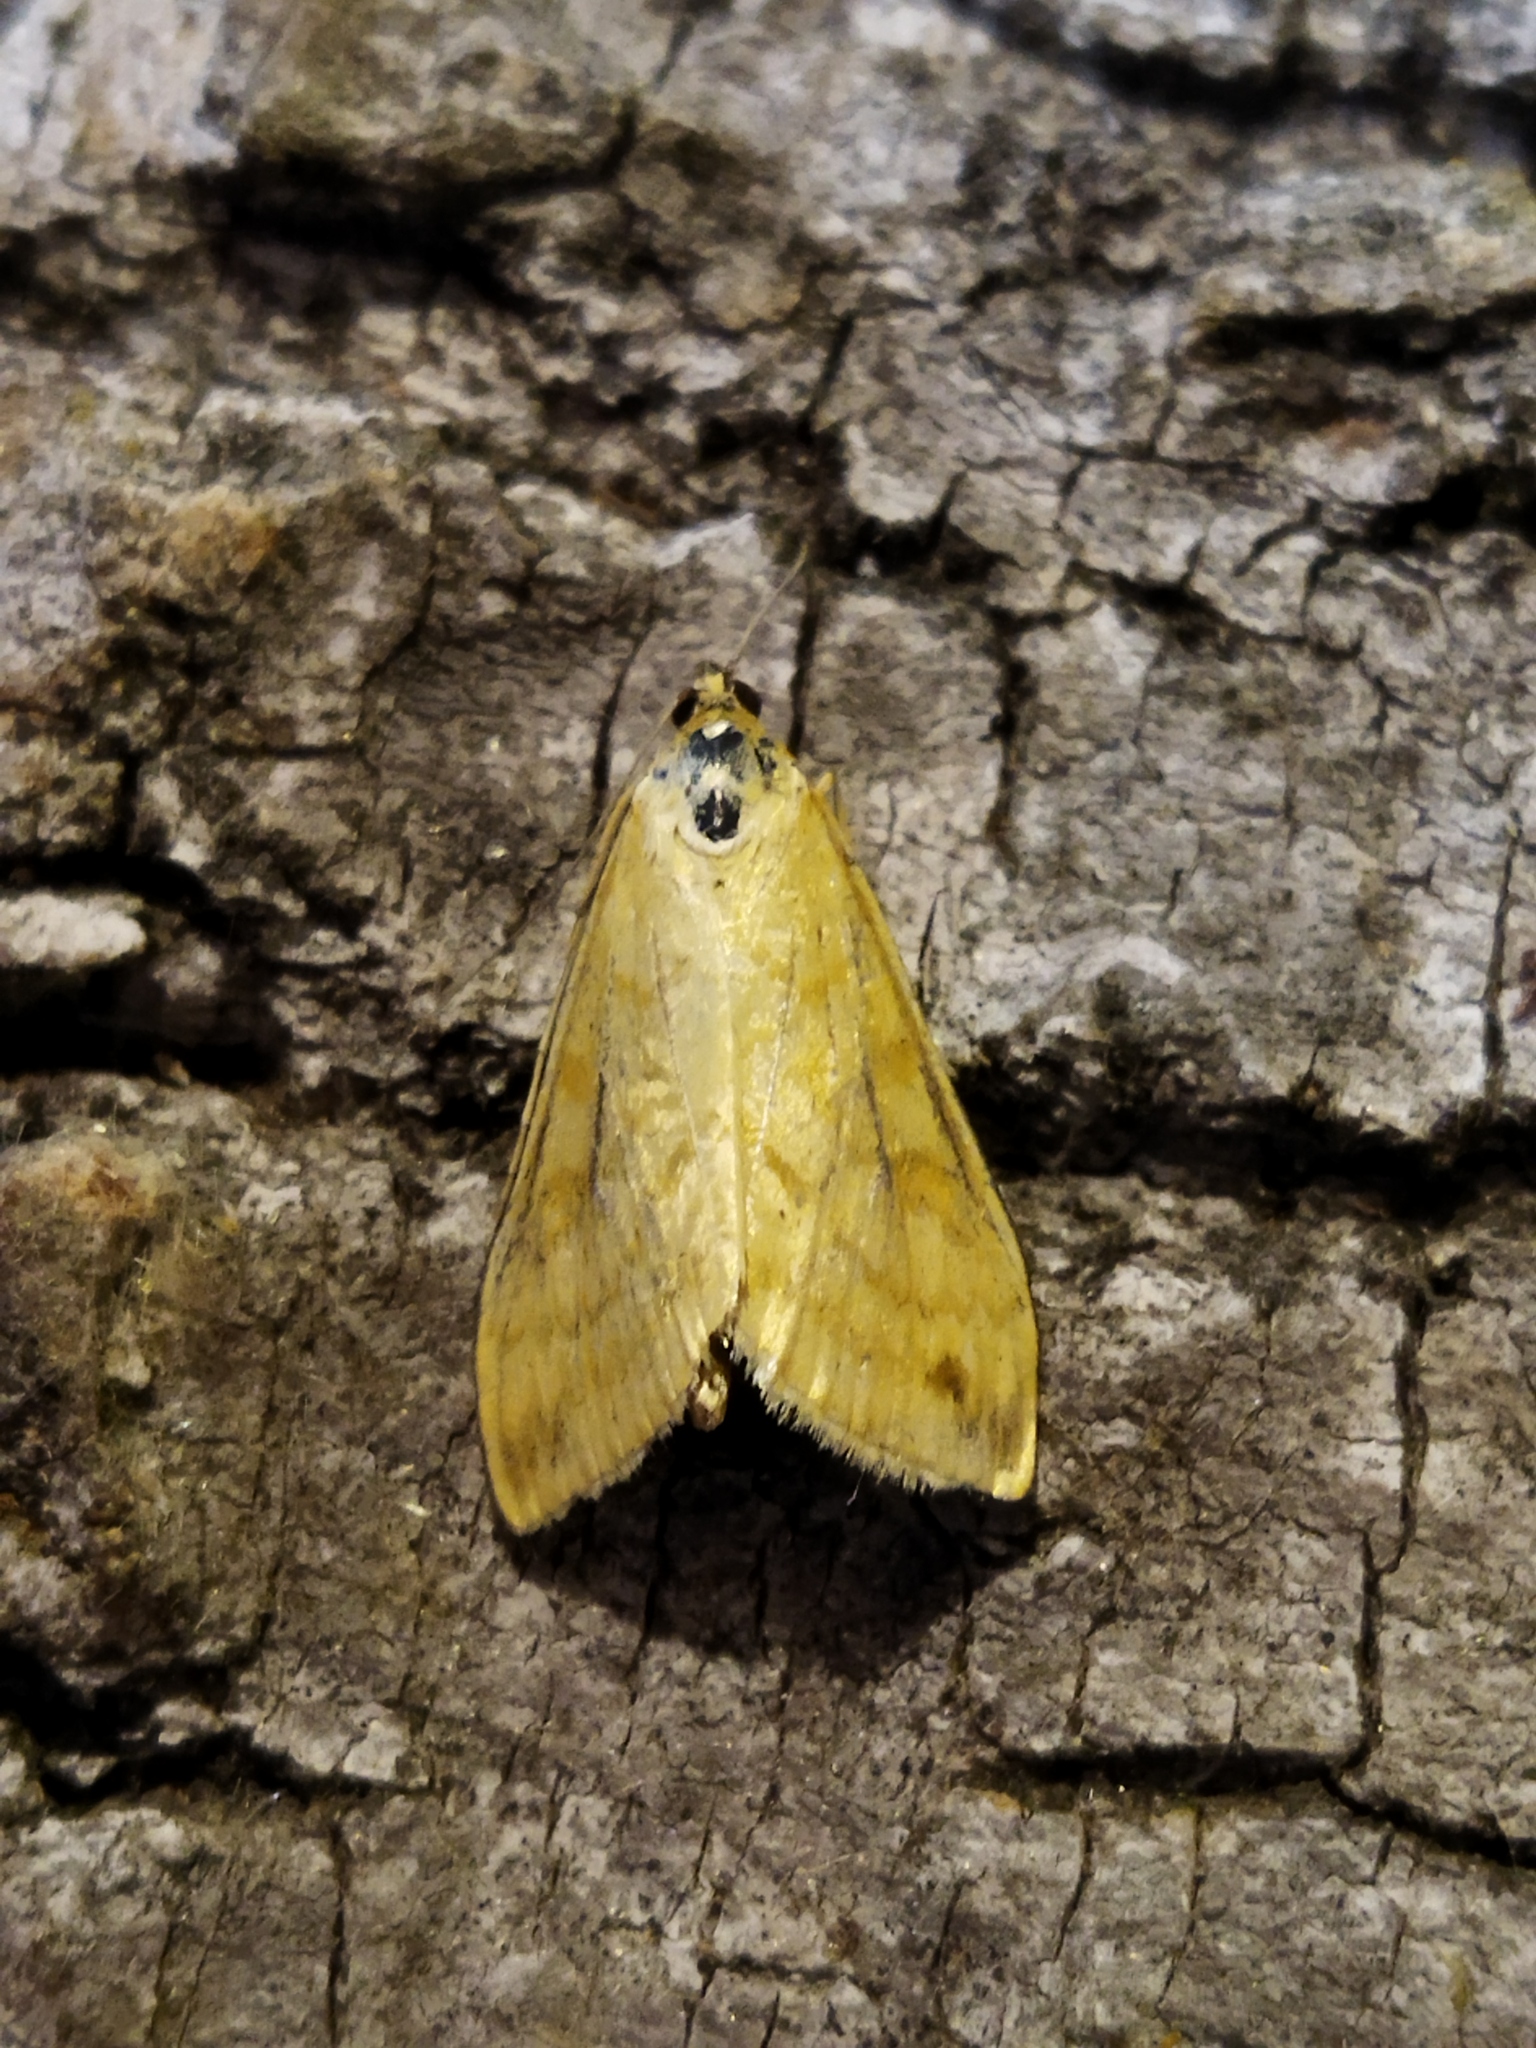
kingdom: Animalia
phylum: Arthropoda
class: Insecta
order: Lepidoptera
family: Crambidae
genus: Sitochroa
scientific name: Sitochroa verticalis
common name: Lesser pearl
